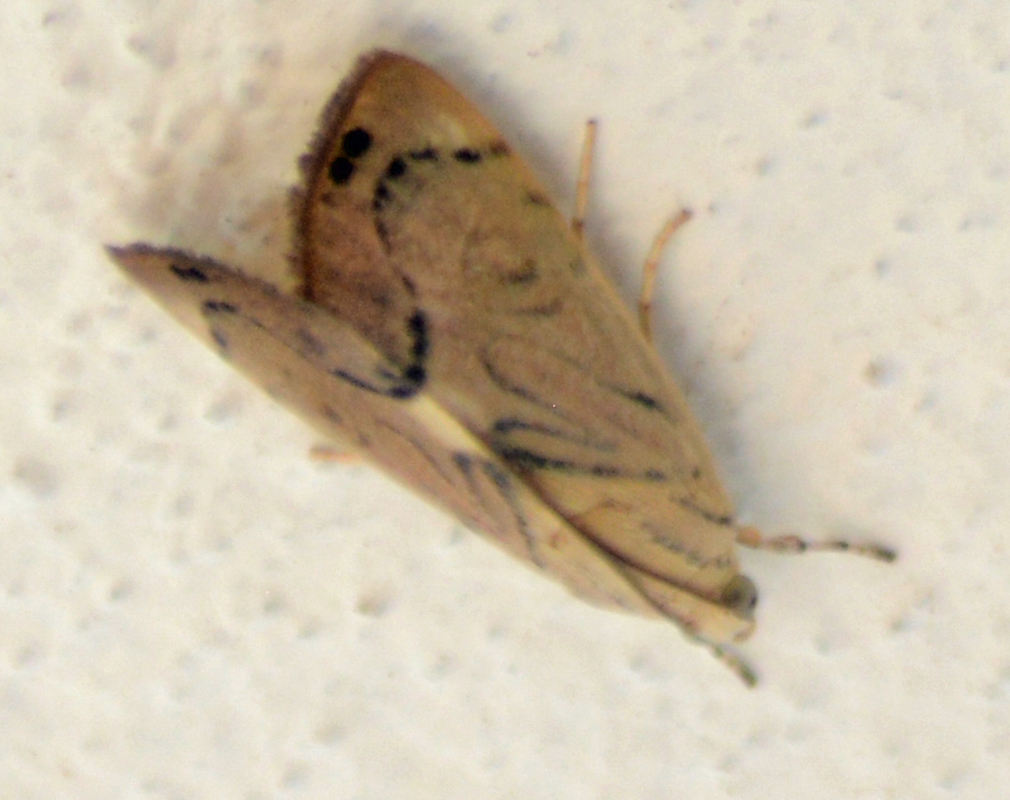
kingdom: Animalia
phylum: Arthropoda
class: Insecta
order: Lepidoptera
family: Crambidae
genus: Dichogama
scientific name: Dichogama redtenbacheri
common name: Carper-leaf webworm moth
